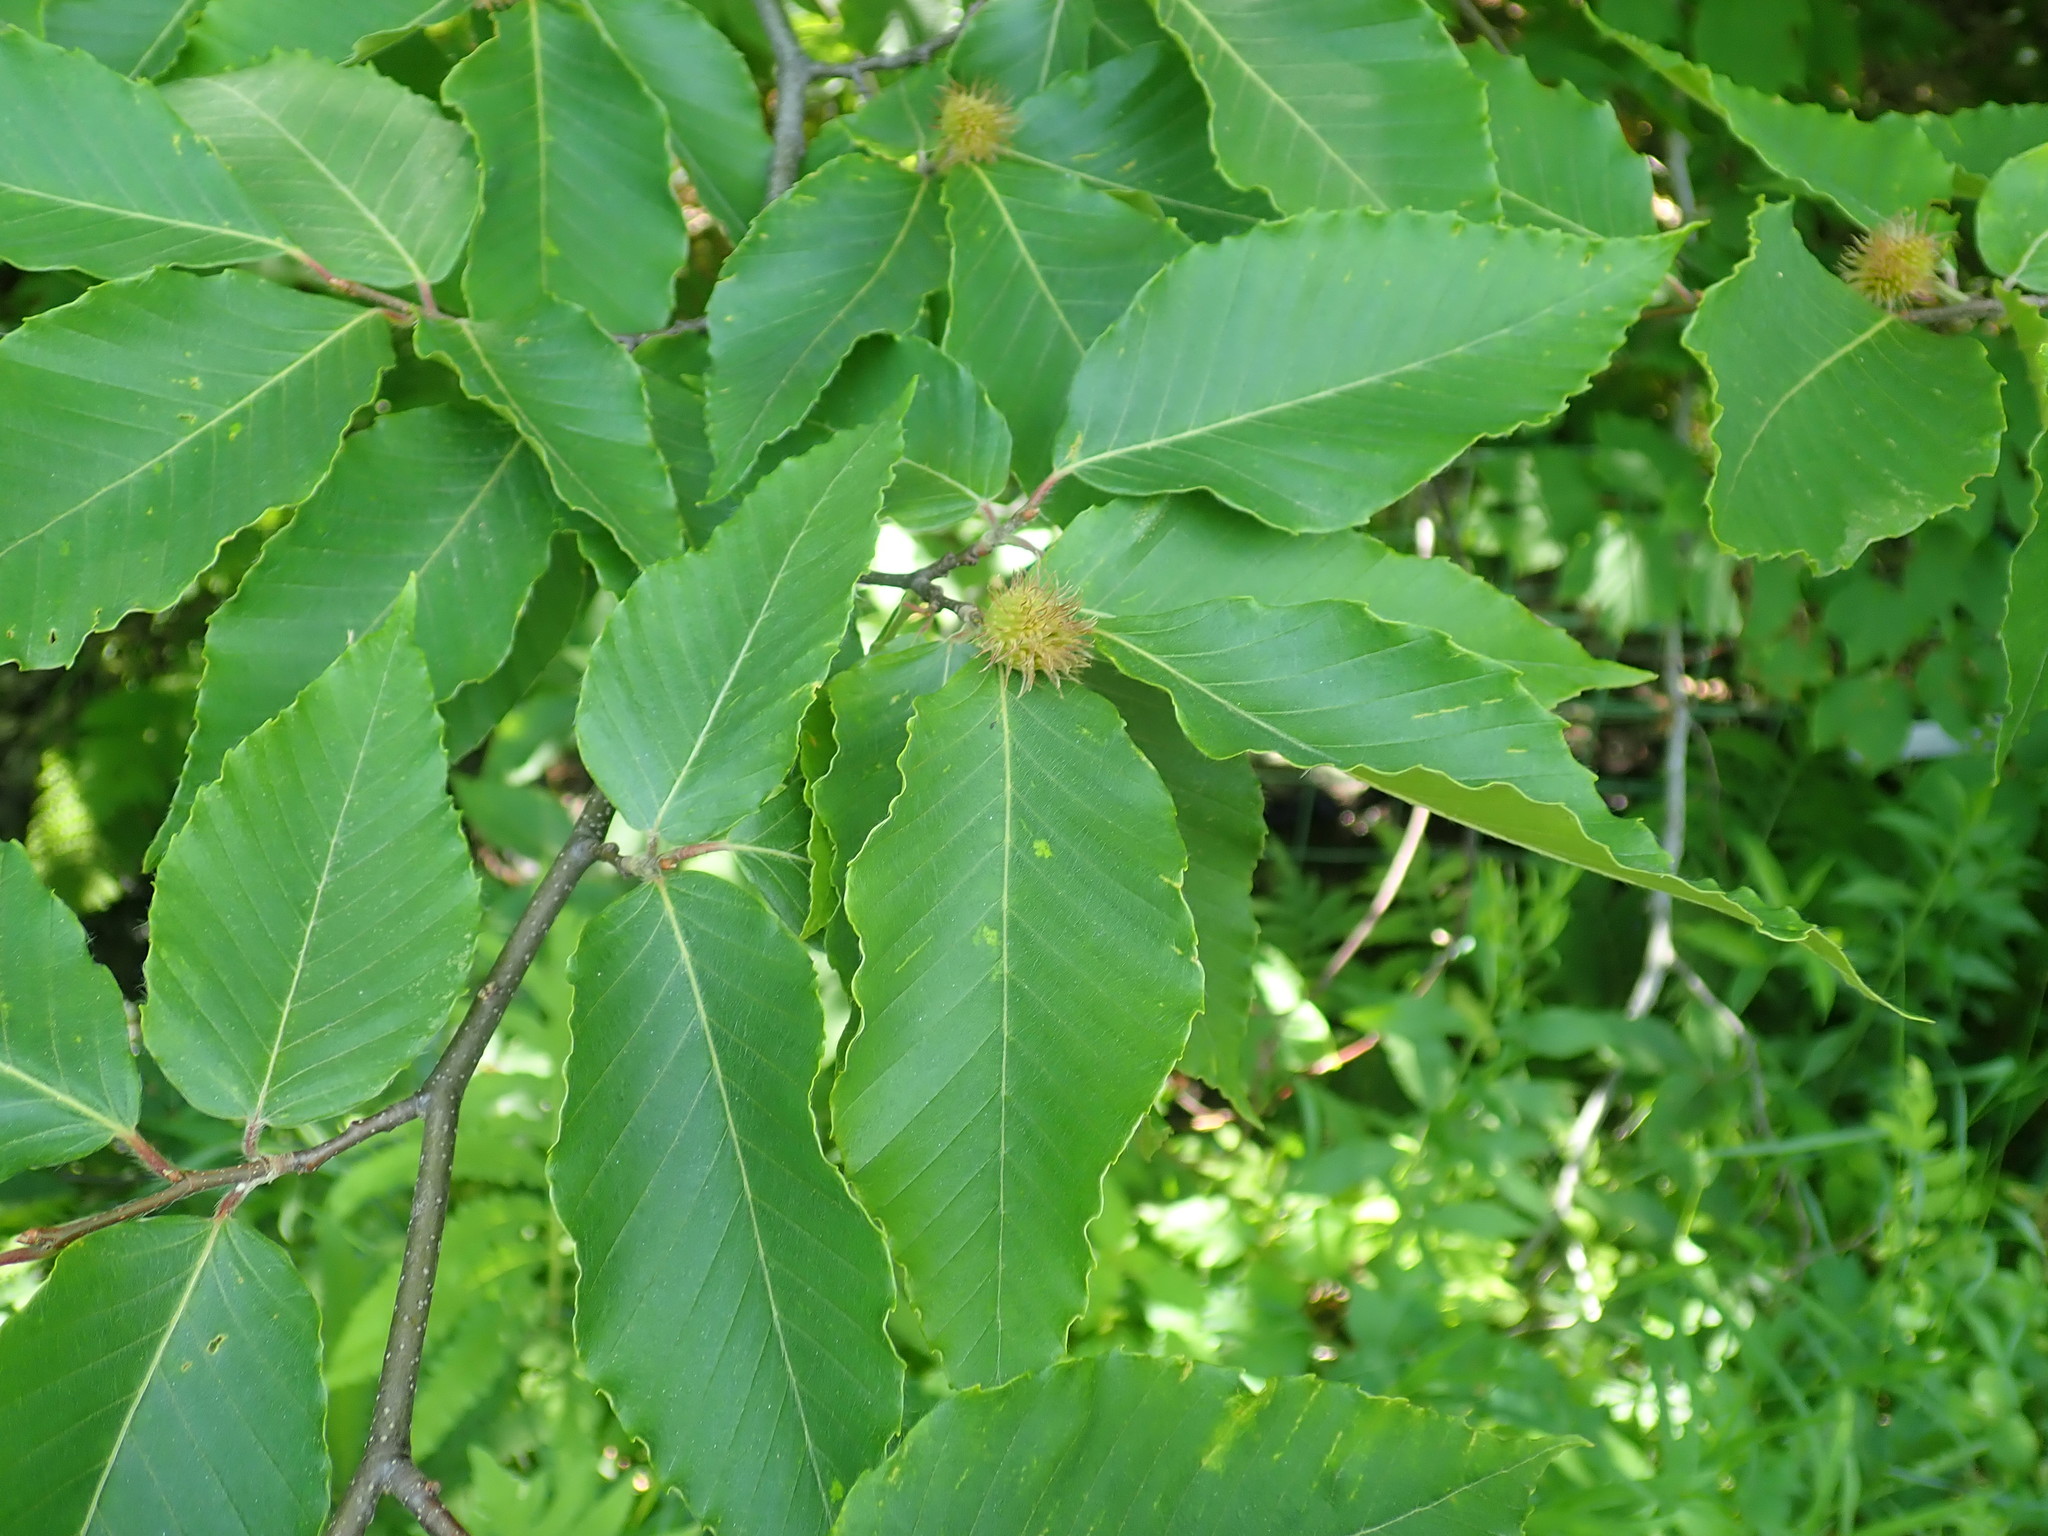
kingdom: Plantae
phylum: Tracheophyta
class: Magnoliopsida
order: Fagales
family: Fagaceae
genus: Fagus
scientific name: Fagus grandifolia
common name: American beech
